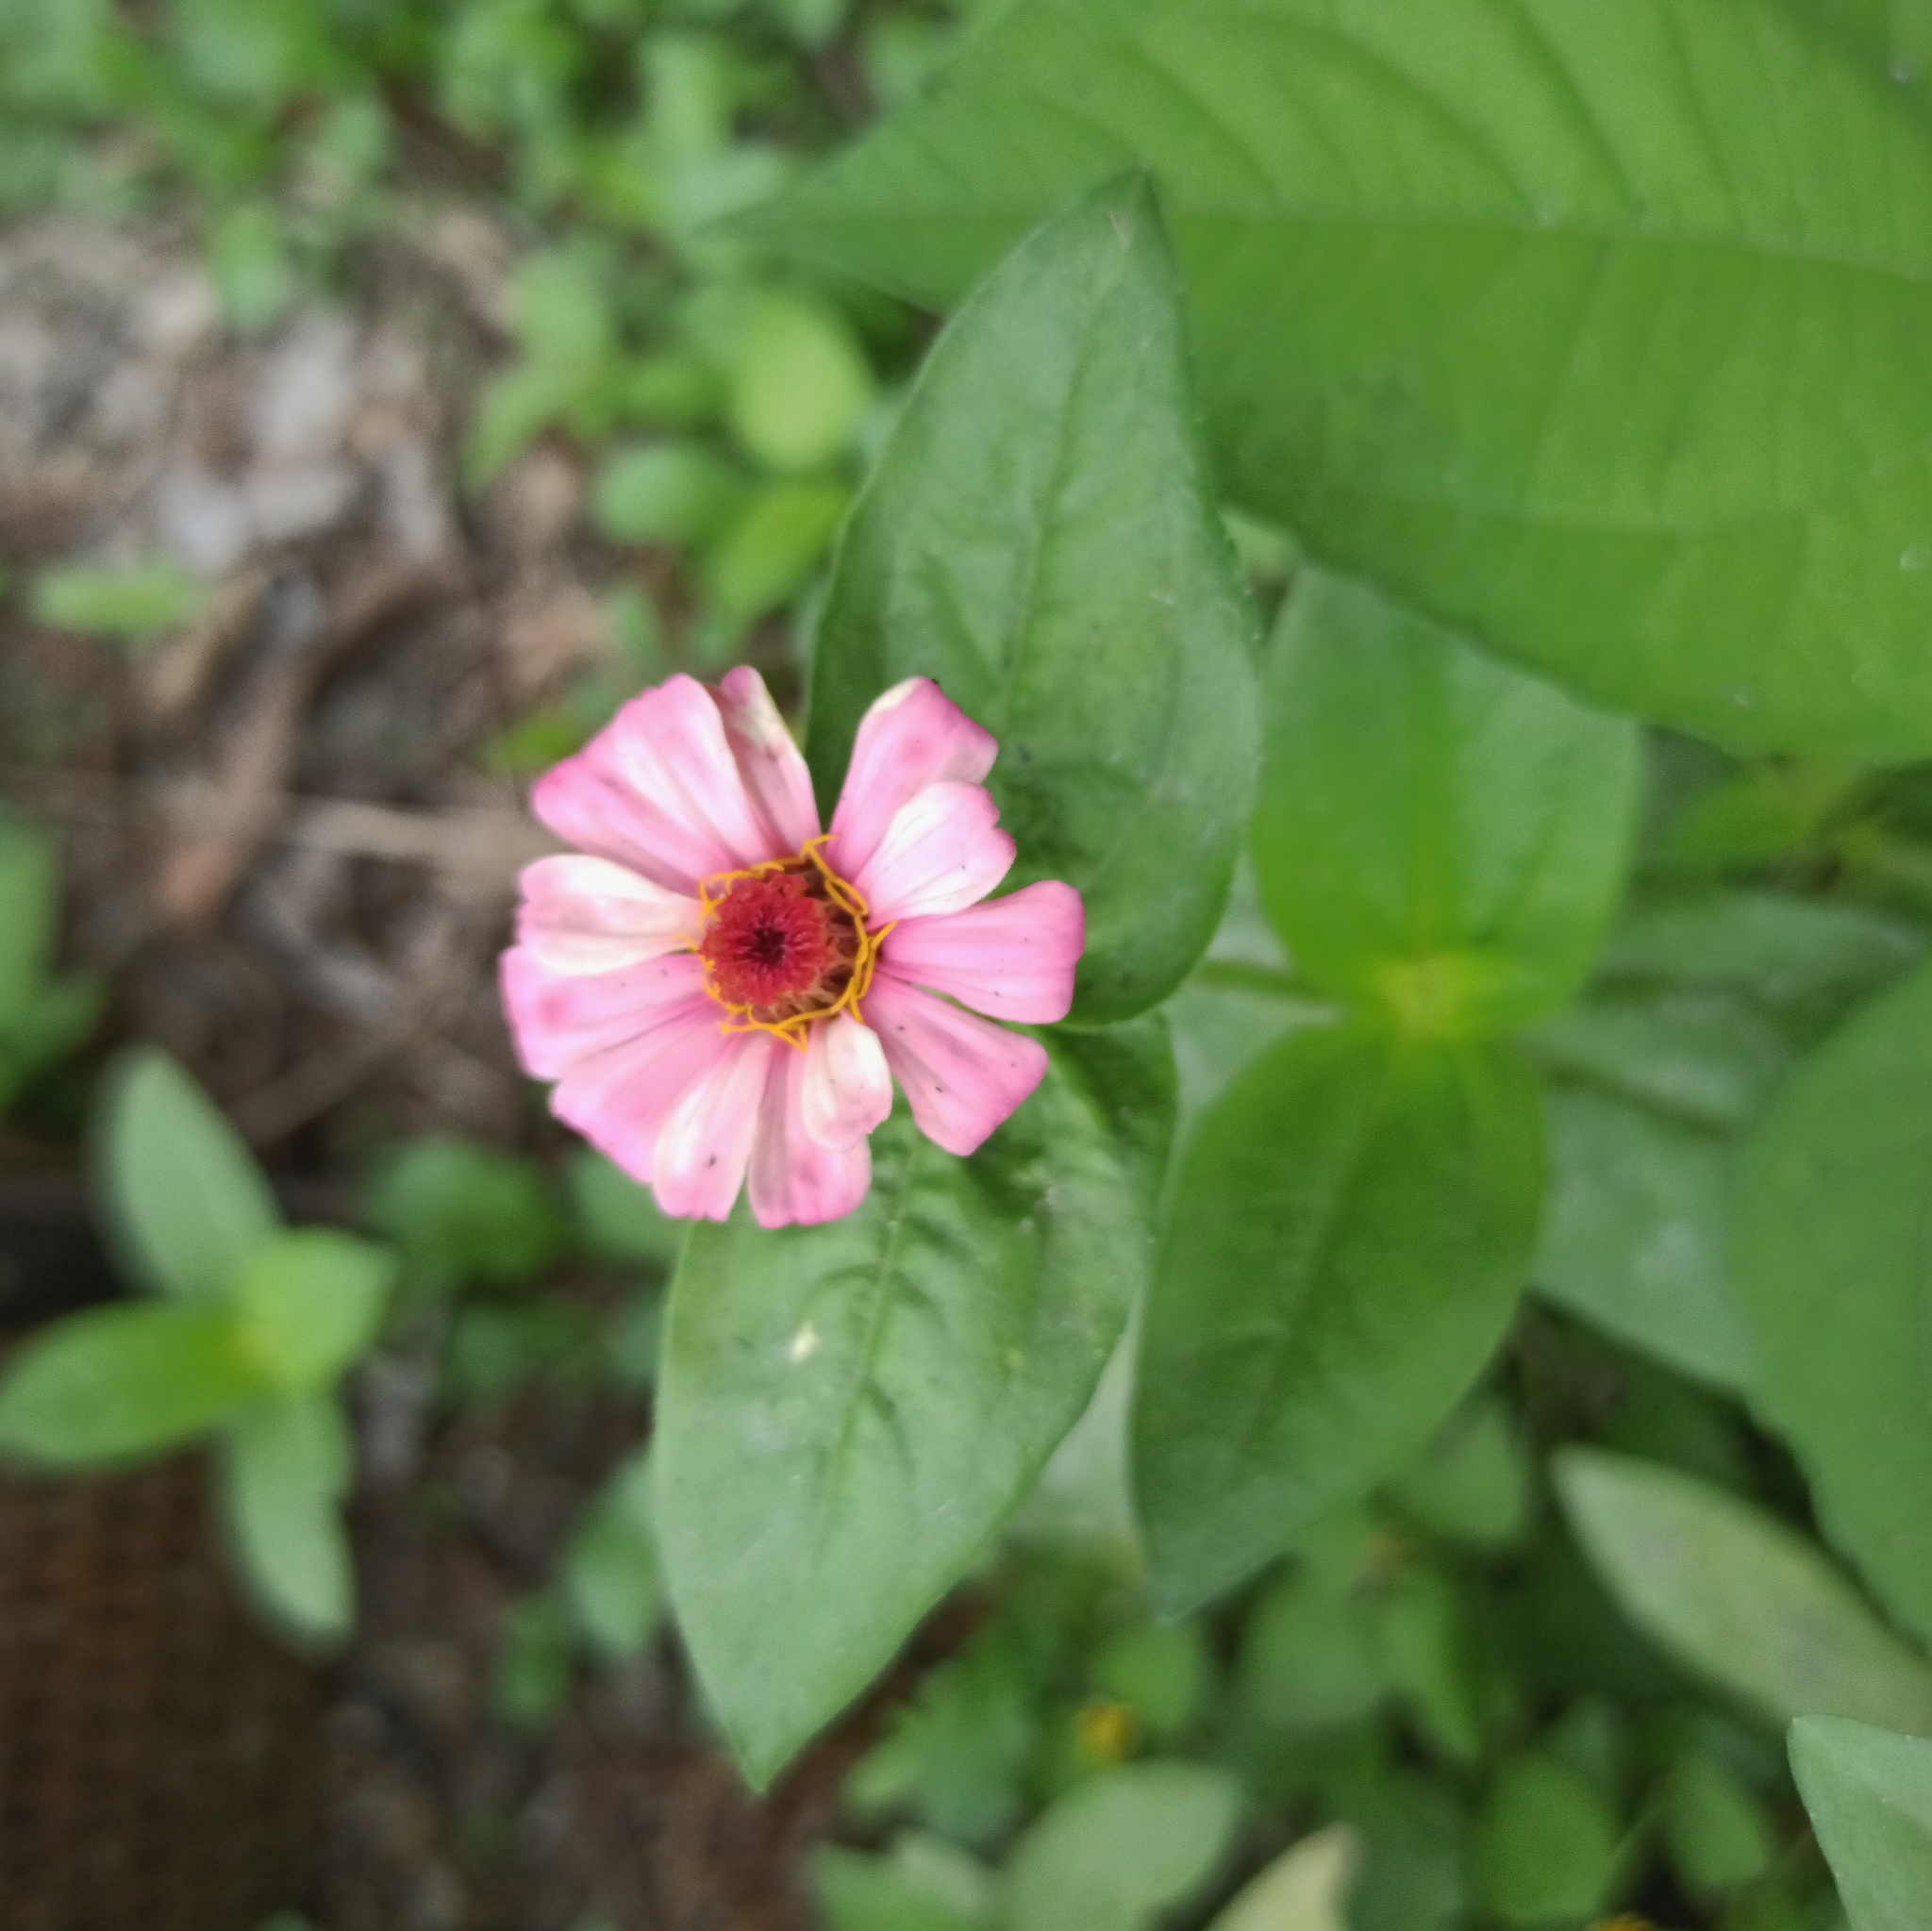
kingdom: Plantae
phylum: Tracheophyta
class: Magnoliopsida
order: Asterales
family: Asteraceae
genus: Zinnia
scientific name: Zinnia elegans
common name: Youth-and-age
